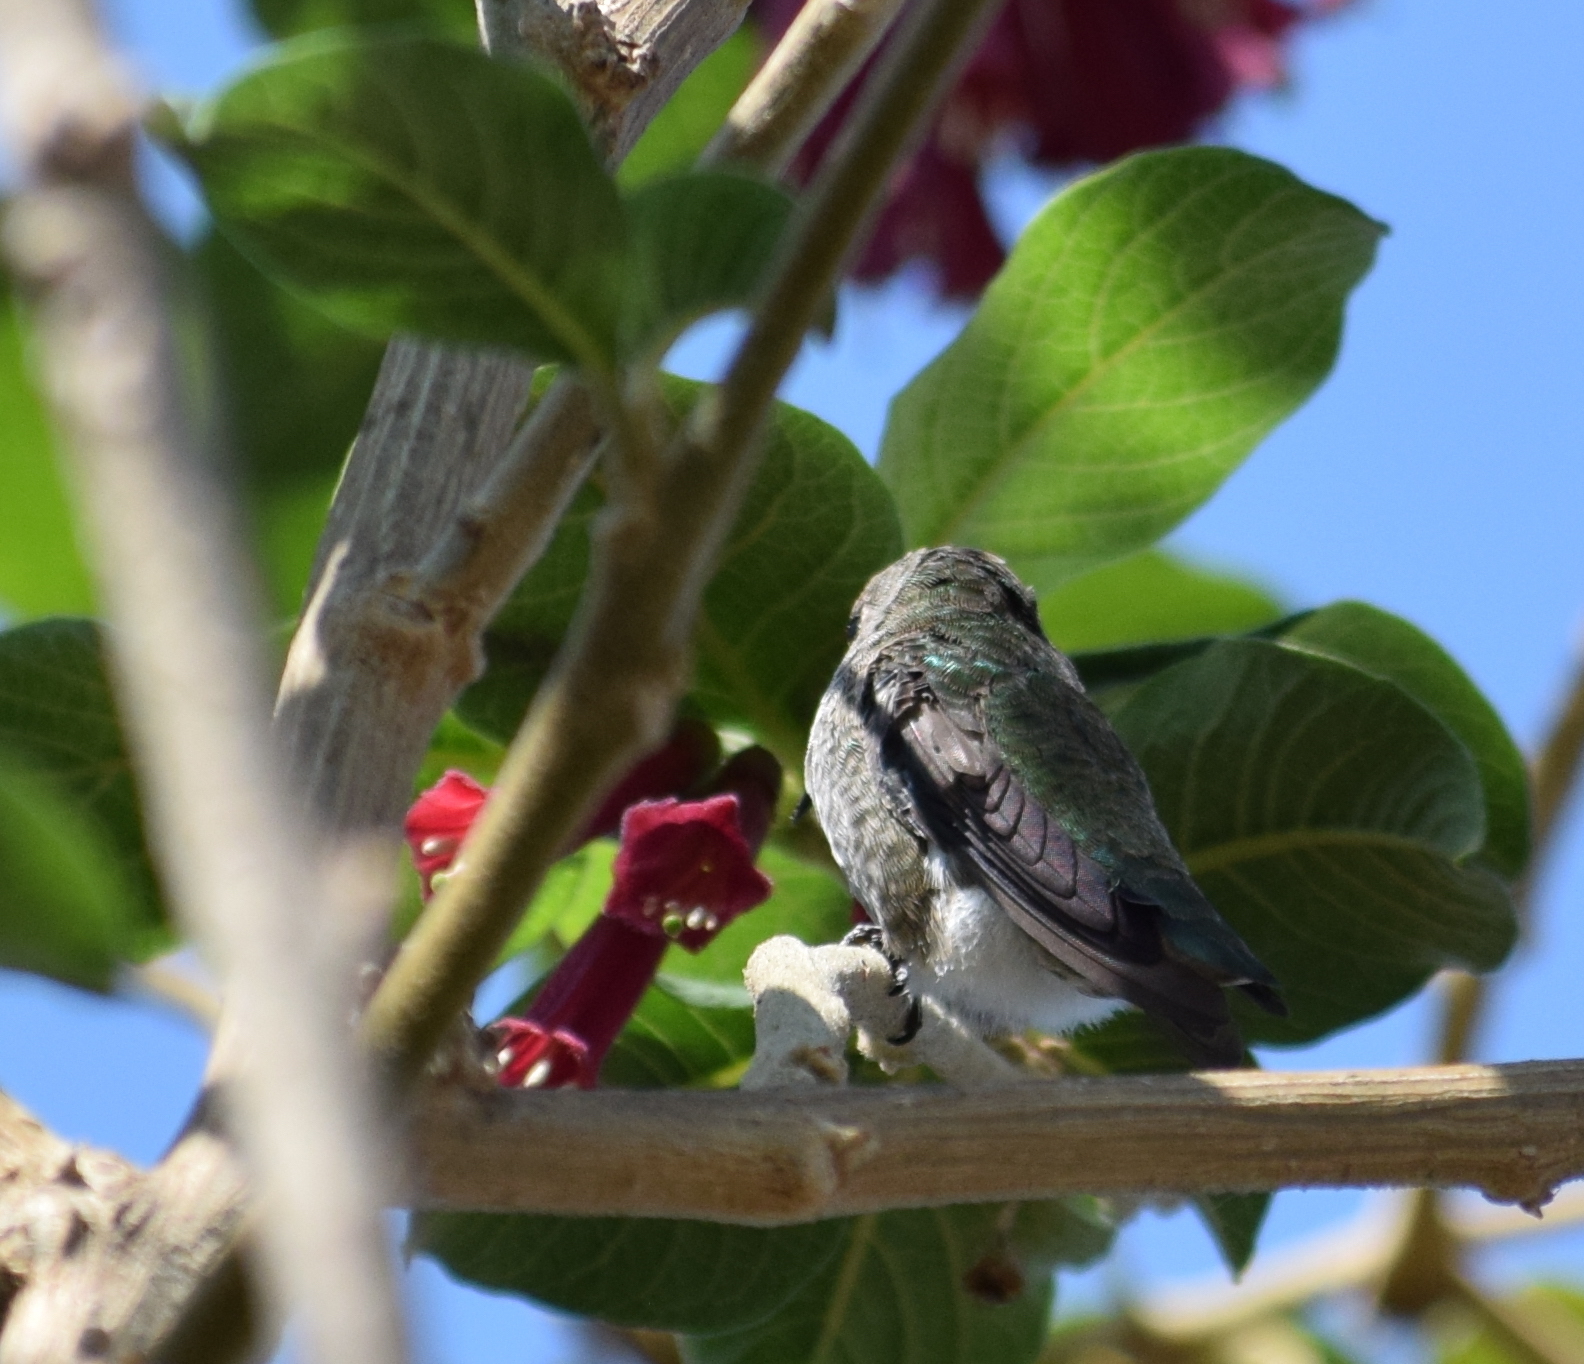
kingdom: Animalia
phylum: Chordata
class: Aves
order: Apodiformes
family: Trochilidae
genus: Calypte
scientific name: Calypte anna
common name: Anna's hummingbird
